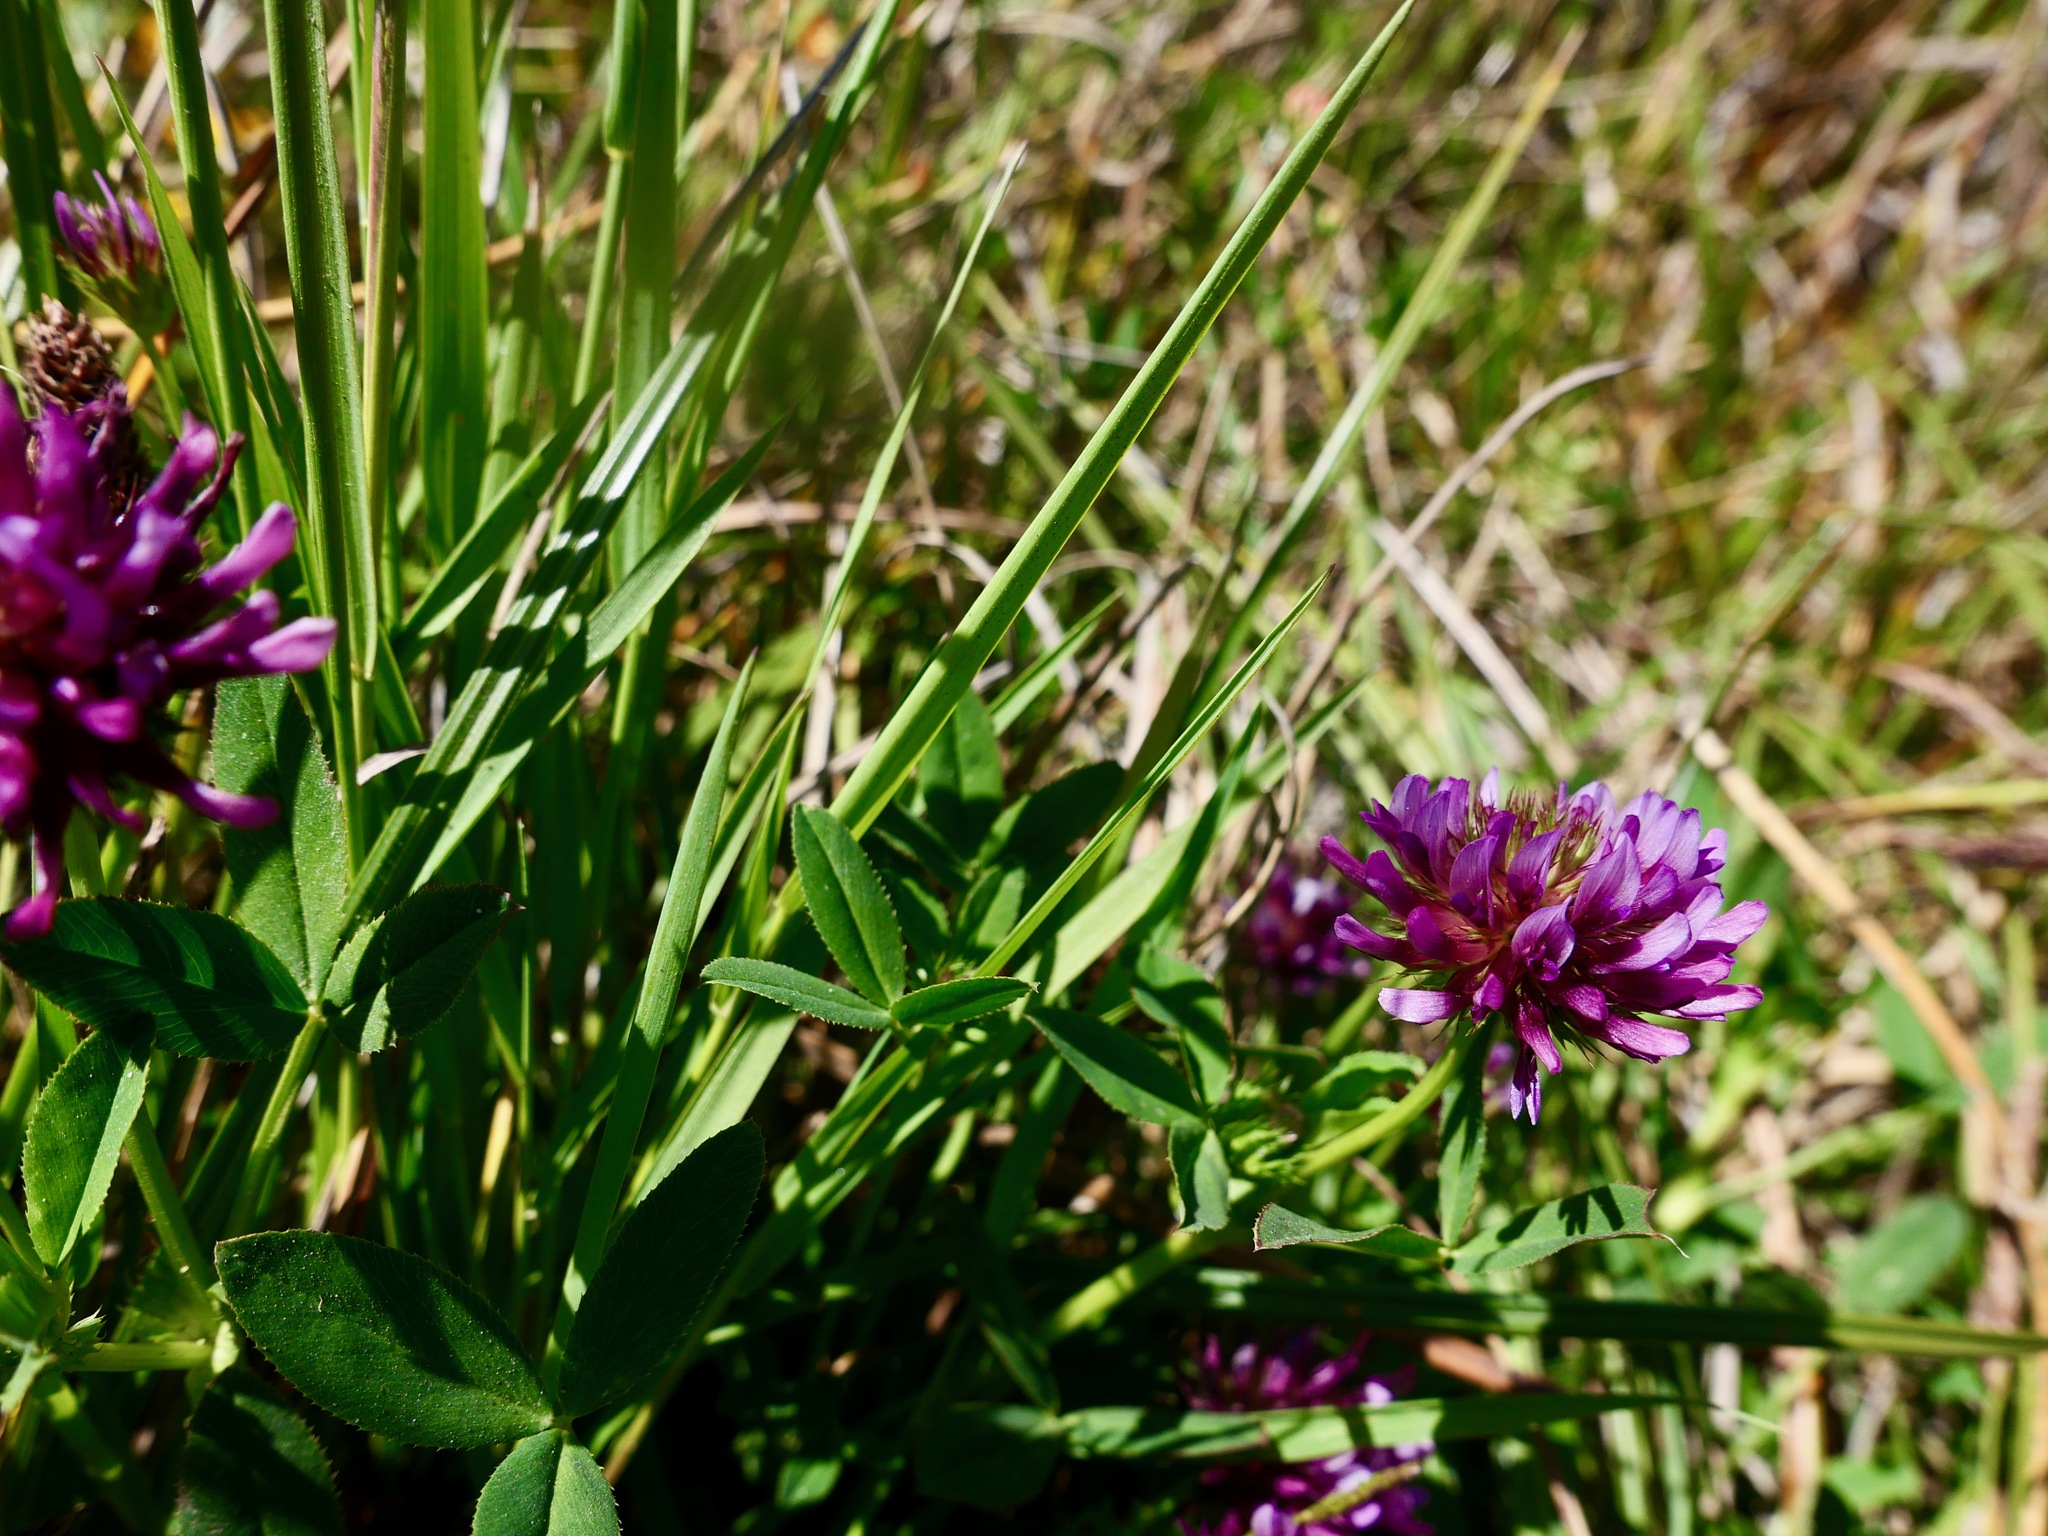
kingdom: Plantae
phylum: Tracheophyta
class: Magnoliopsida
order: Fabales
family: Fabaceae
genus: Trifolium
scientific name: Trifolium wormskioldii
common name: Springbank clover
